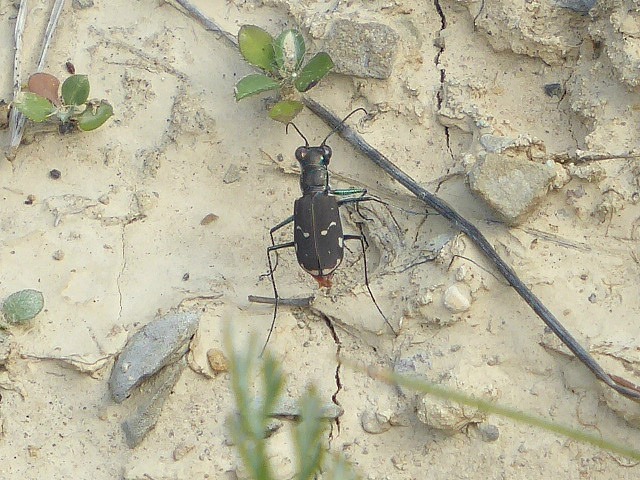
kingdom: Animalia
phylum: Arthropoda
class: Insecta
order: Coleoptera
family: Carabidae
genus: Cicindela
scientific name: Cicindela rufiventris
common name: Eastern red-bellied tiger beetle
